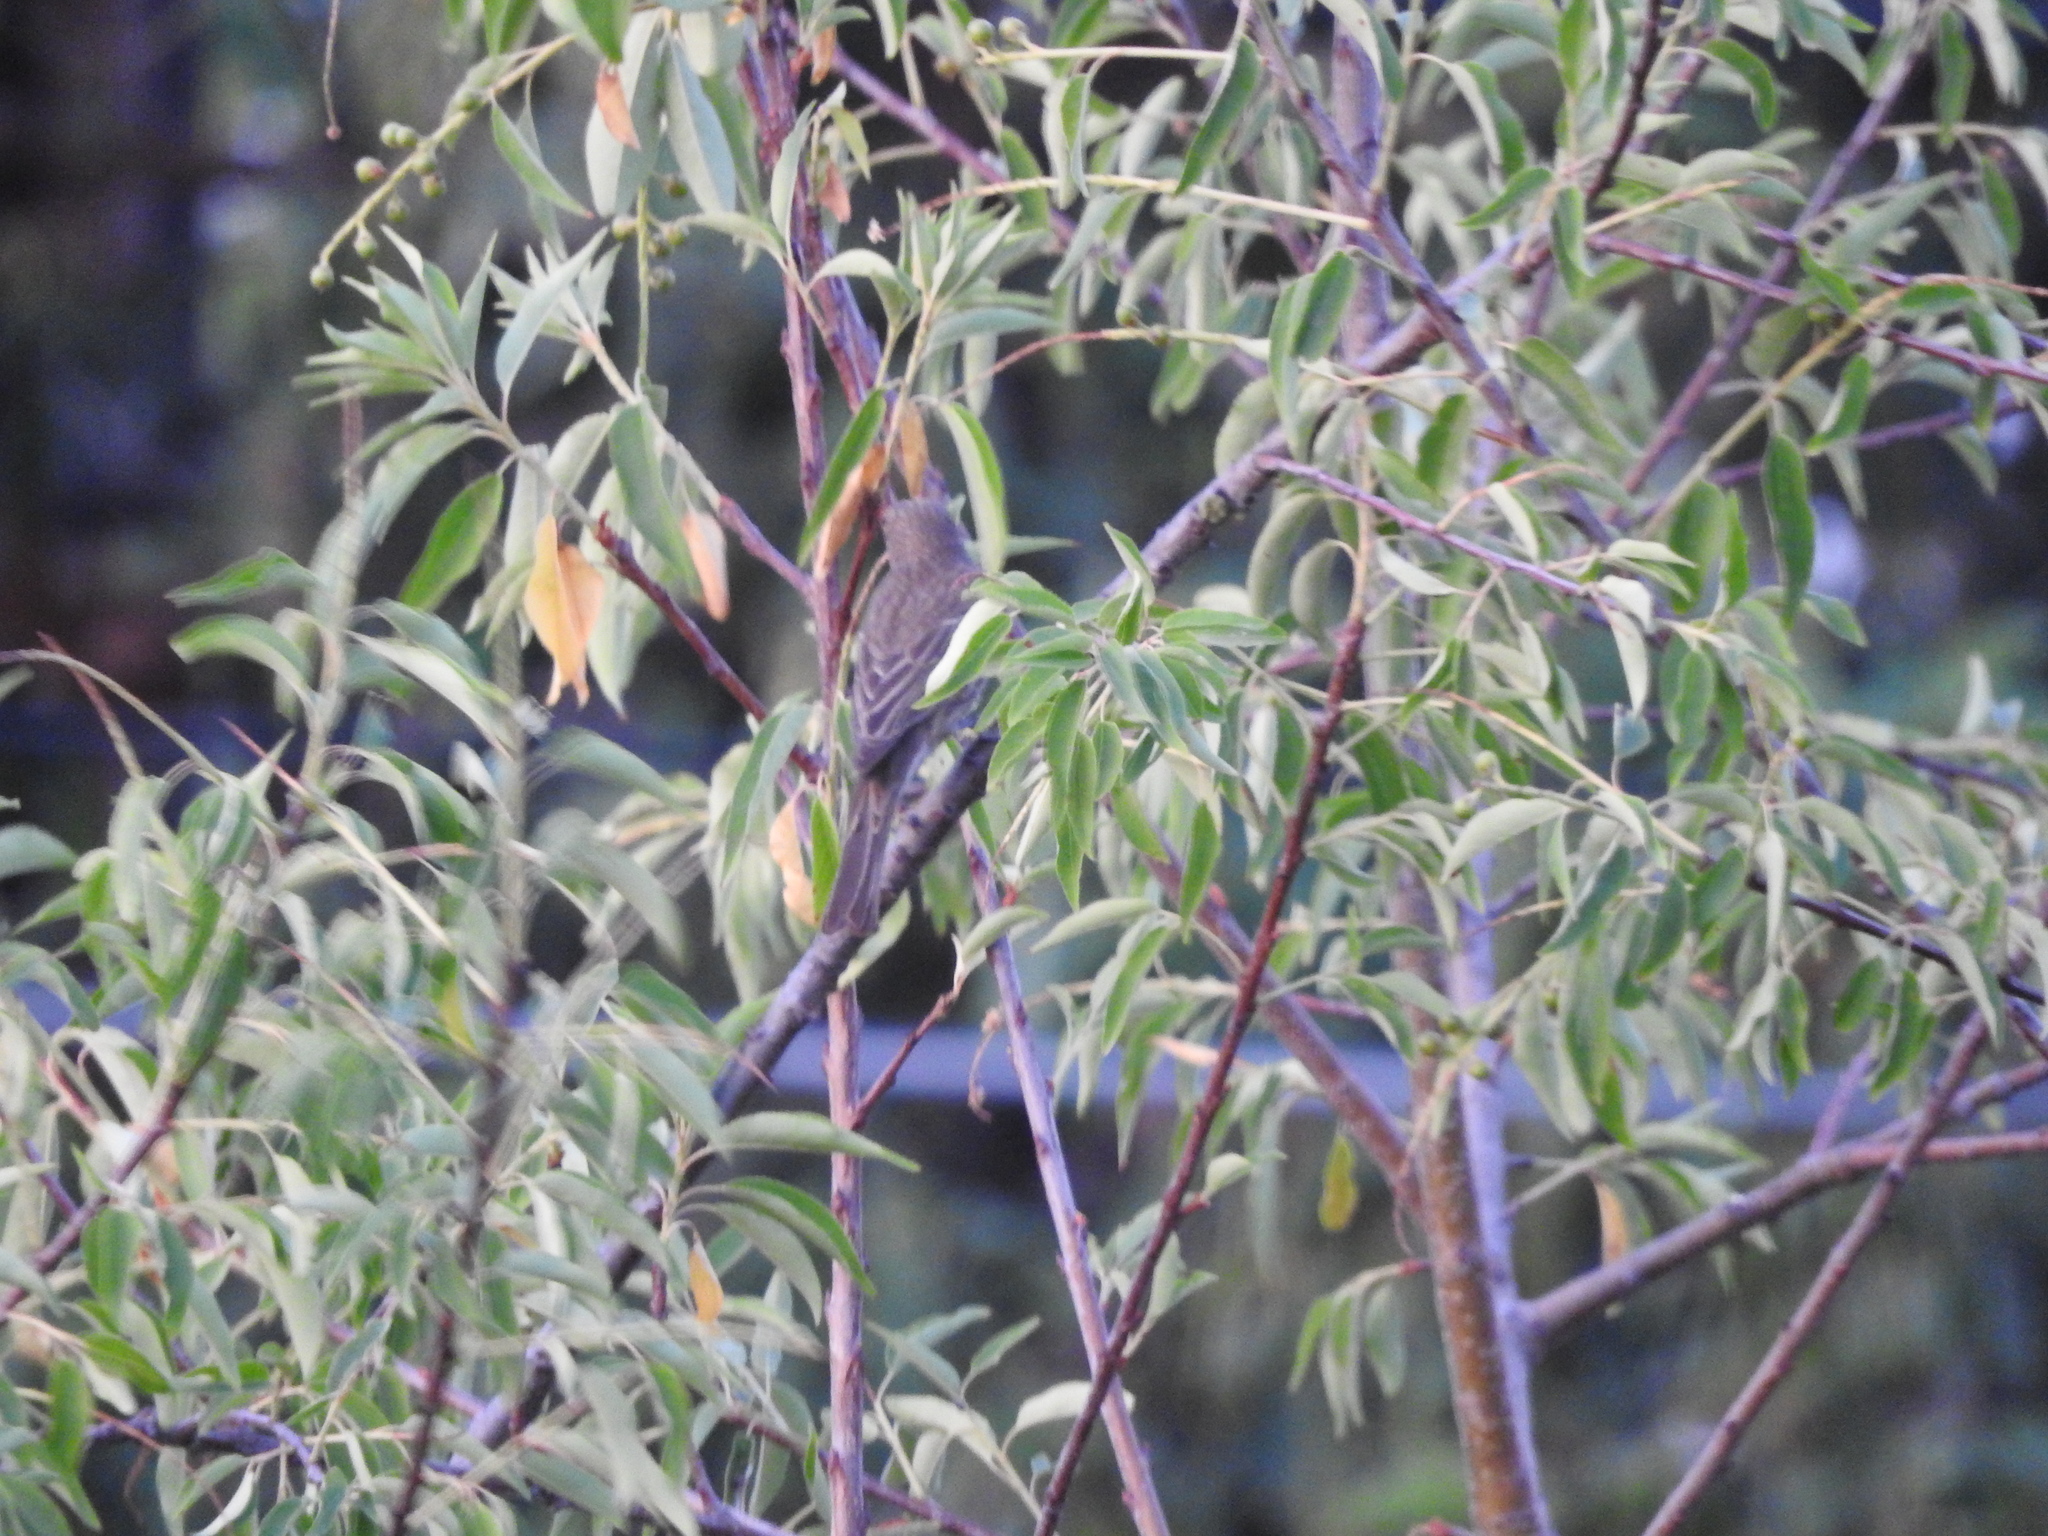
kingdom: Animalia
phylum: Chordata
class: Aves
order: Passeriformes
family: Fringillidae
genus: Haemorhous
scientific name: Haemorhous mexicanus
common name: House finch
